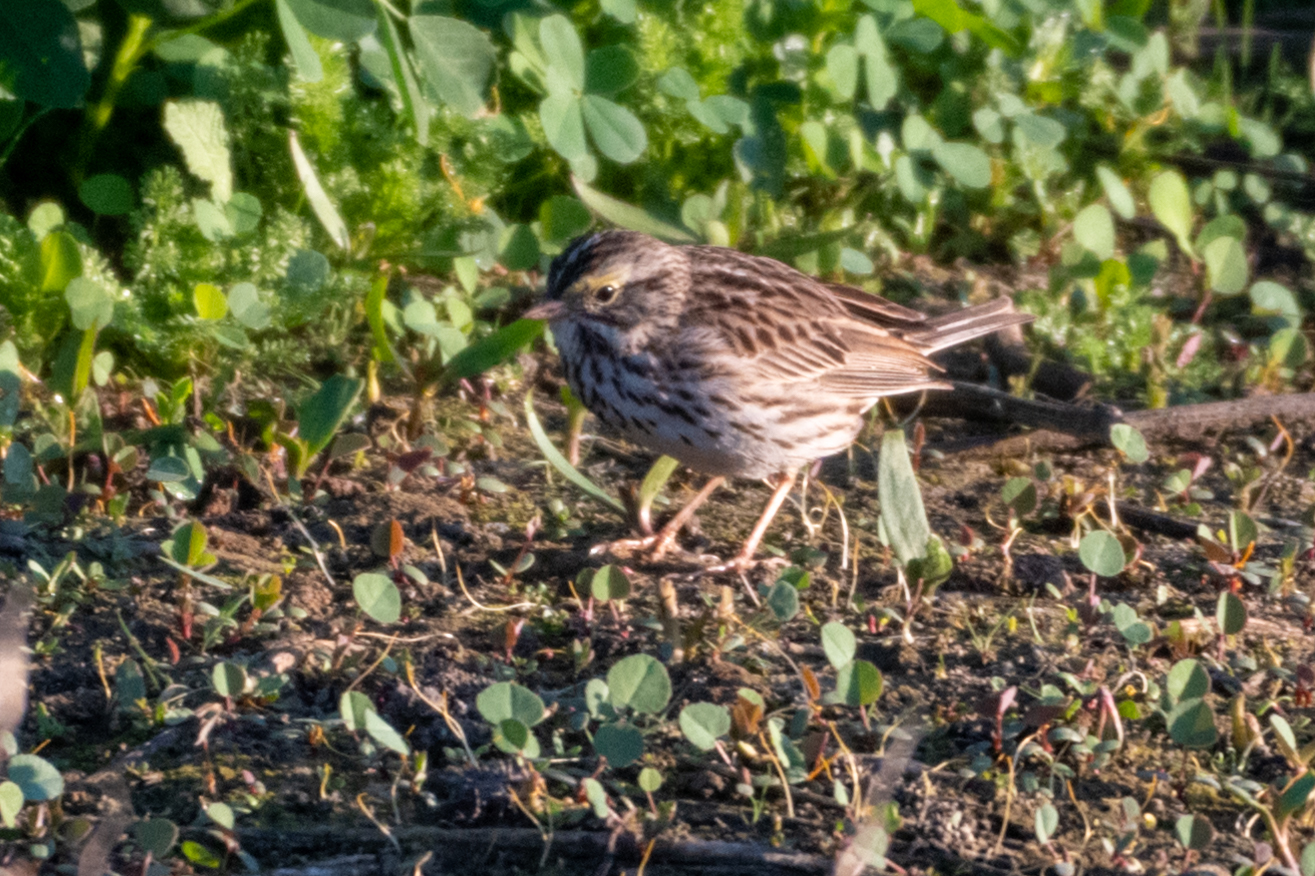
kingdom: Animalia
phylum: Chordata
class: Aves
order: Passeriformes
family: Passerellidae
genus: Passerculus
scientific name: Passerculus sandwichensis
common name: Savannah sparrow
